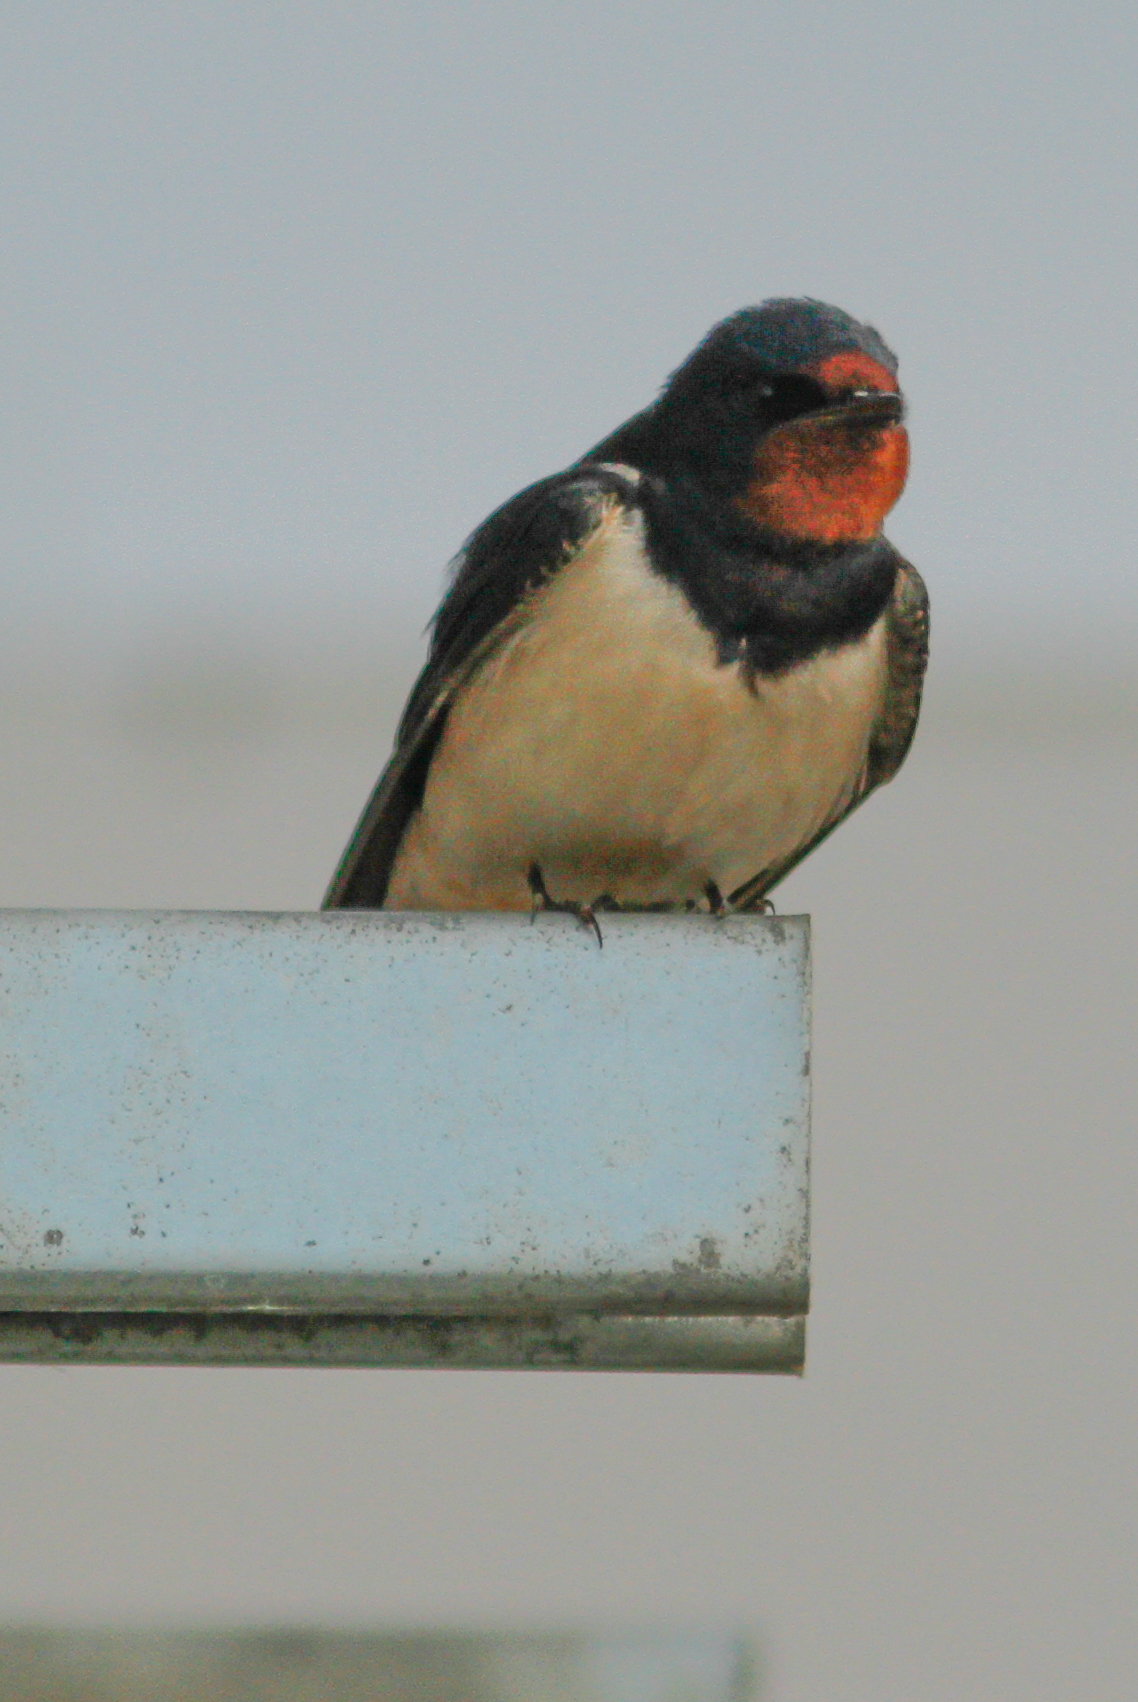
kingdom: Animalia
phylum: Chordata
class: Aves
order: Passeriformes
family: Hirundinidae
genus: Hirundo
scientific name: Hirundo rustica
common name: Barn swallow
